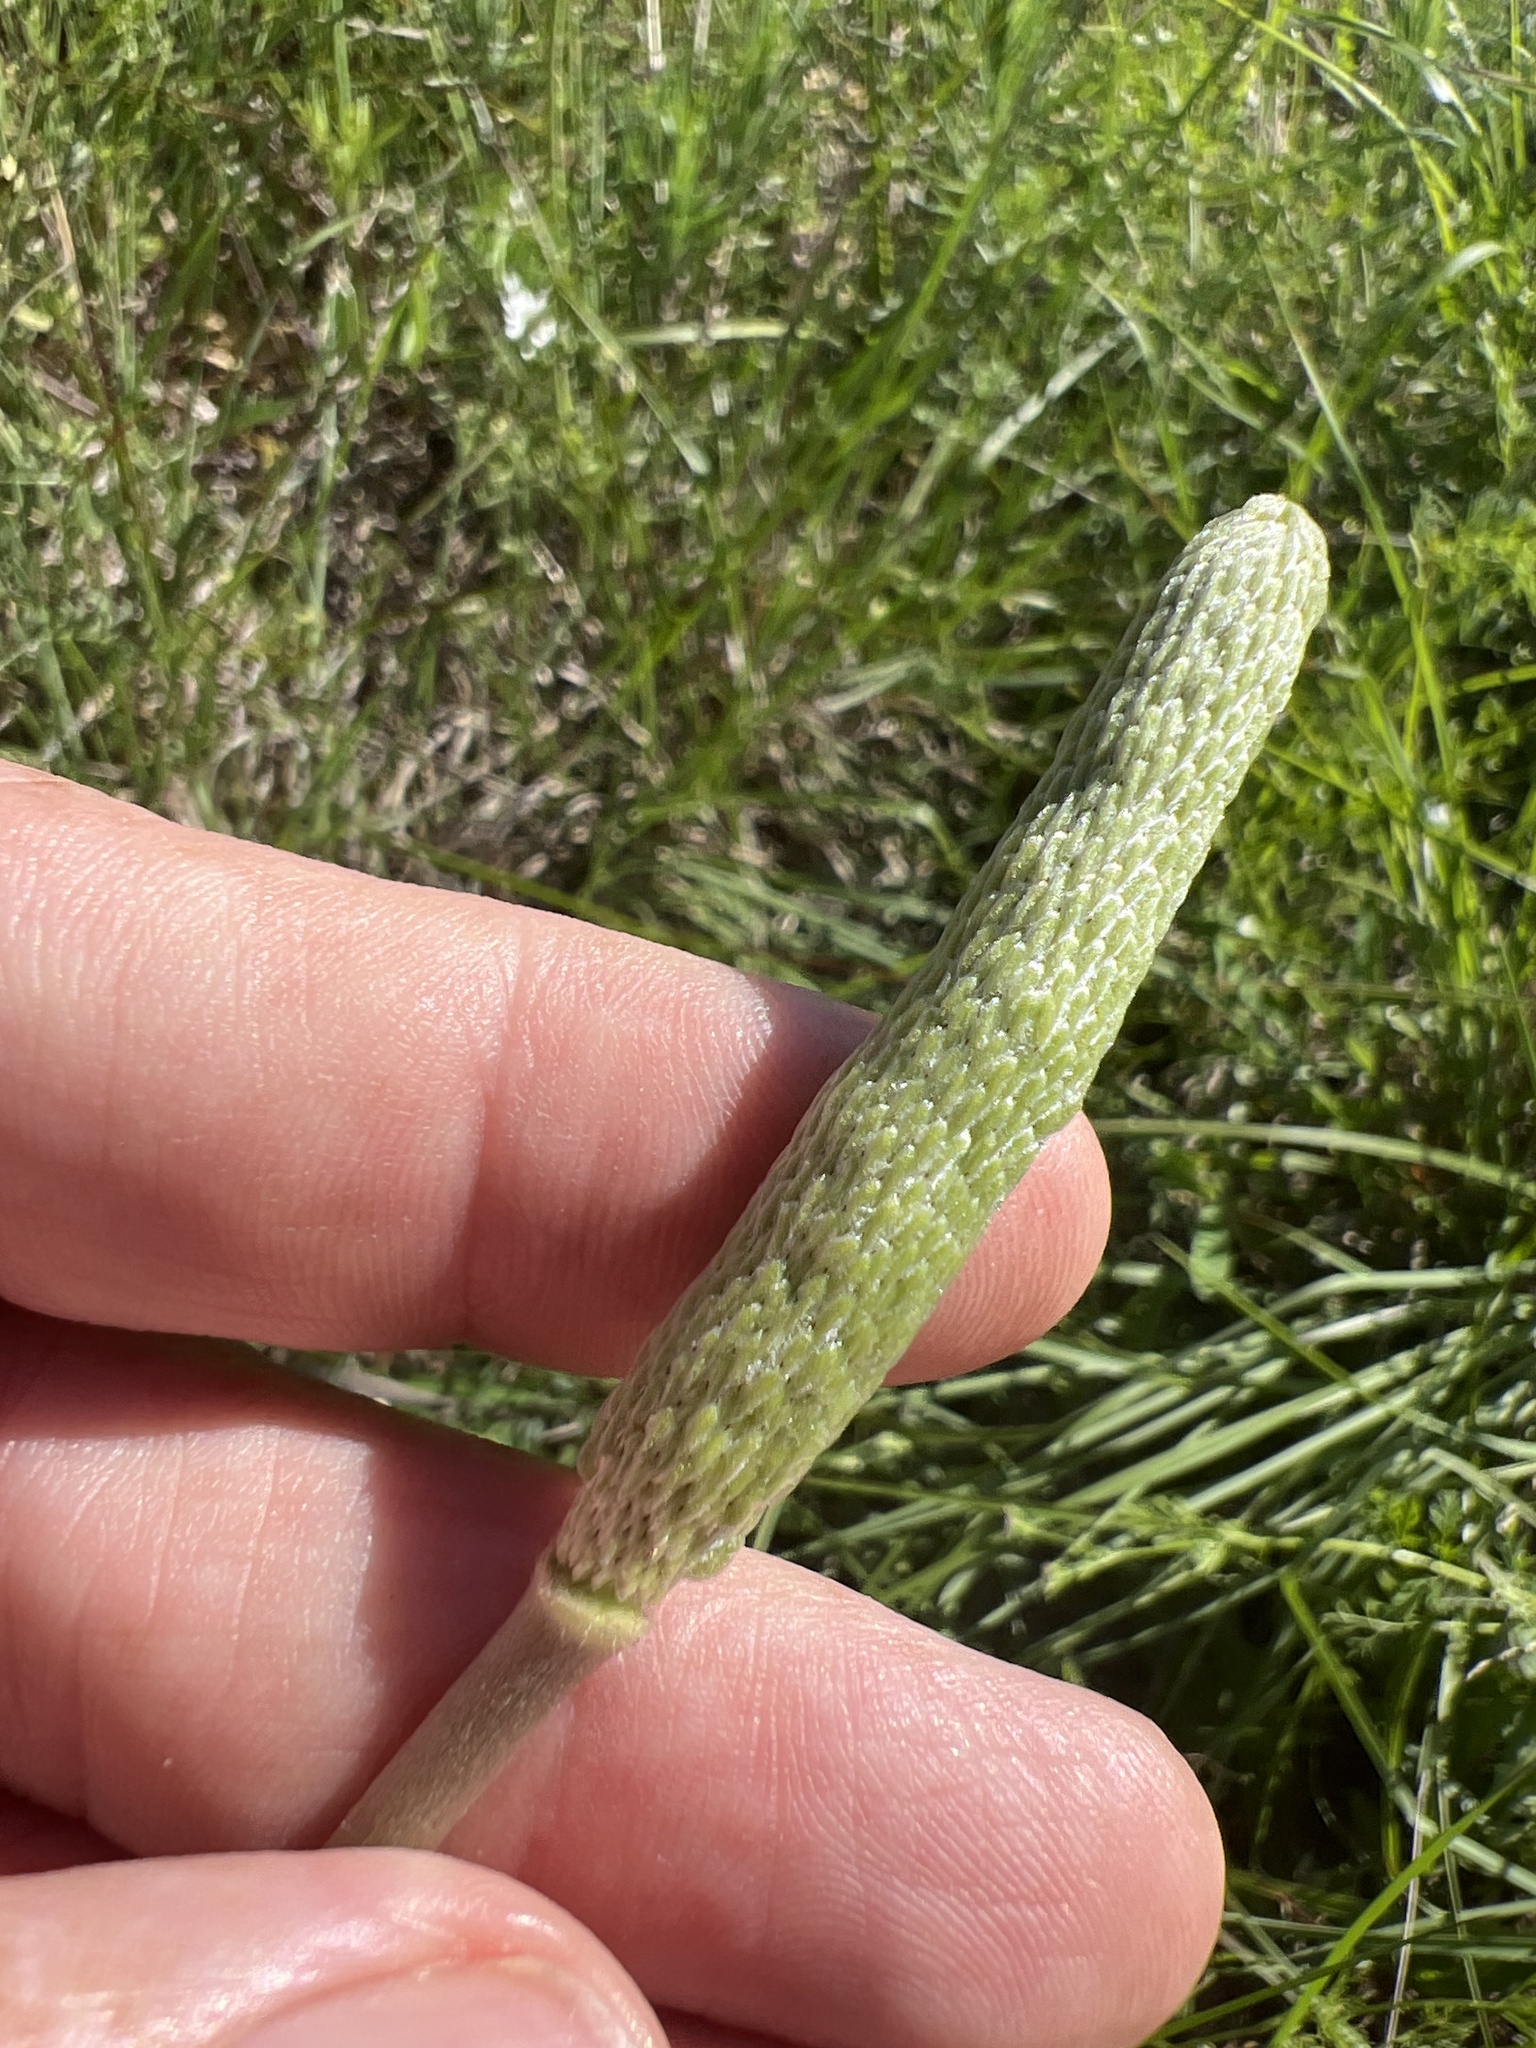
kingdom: Plantae
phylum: Tracheophyta
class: Magnoliopsida
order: Ranunculales
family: Ranunculaceae
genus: Anemone
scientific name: Anemone berlandieri
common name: Ten-petal anemone
